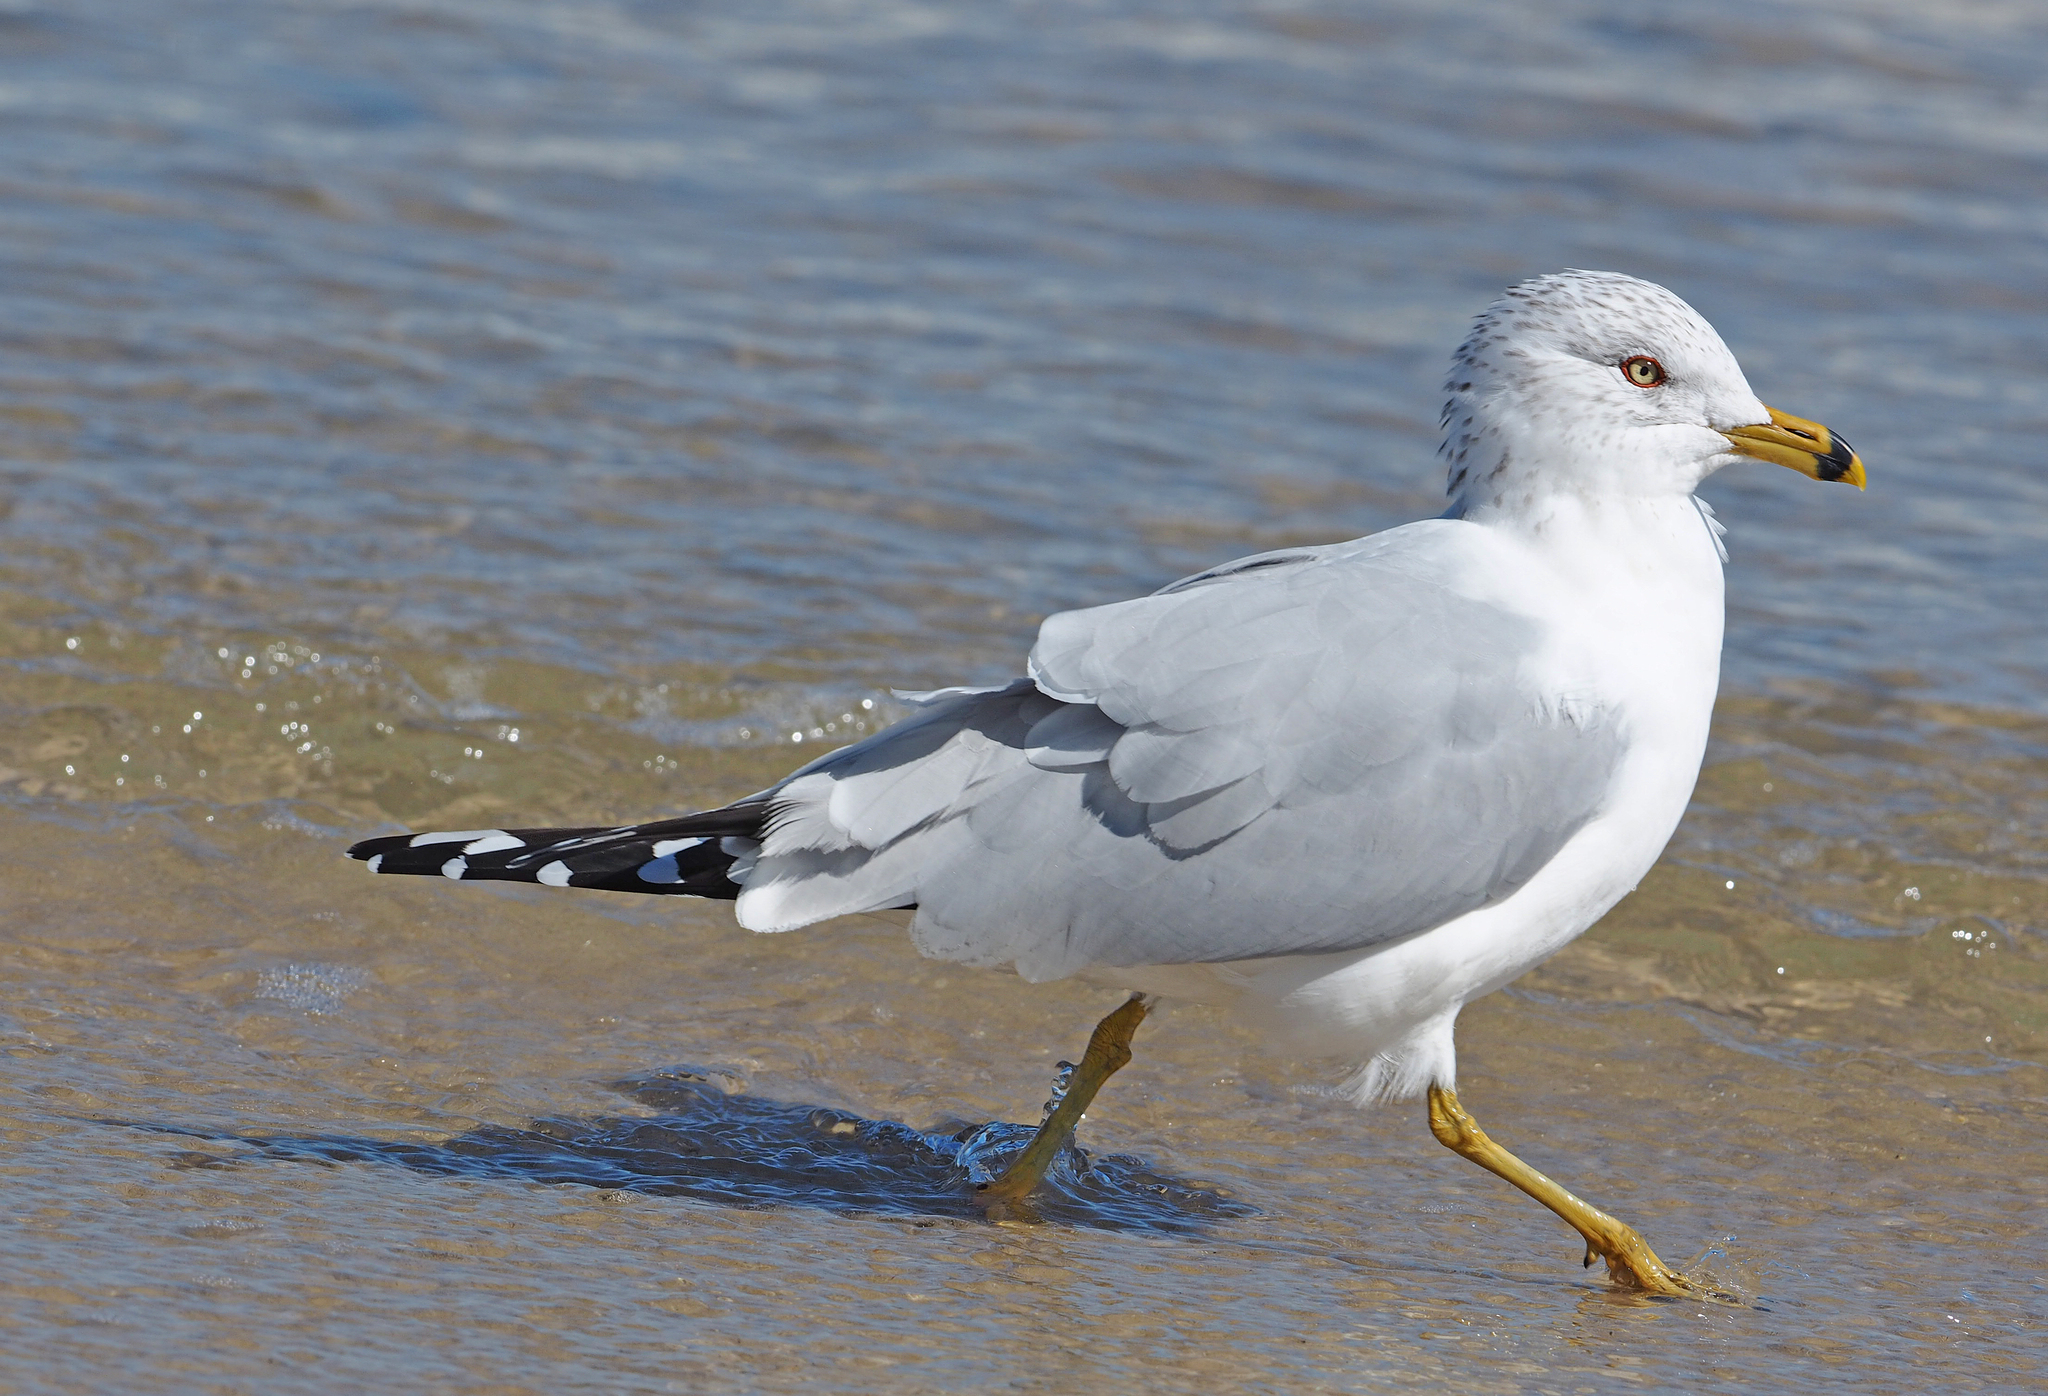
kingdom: Animalia
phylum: Chordata
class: Aves
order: Charadriiformes
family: Laridae
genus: Larus
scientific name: Larus delawarensis
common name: Ring-billed gull
